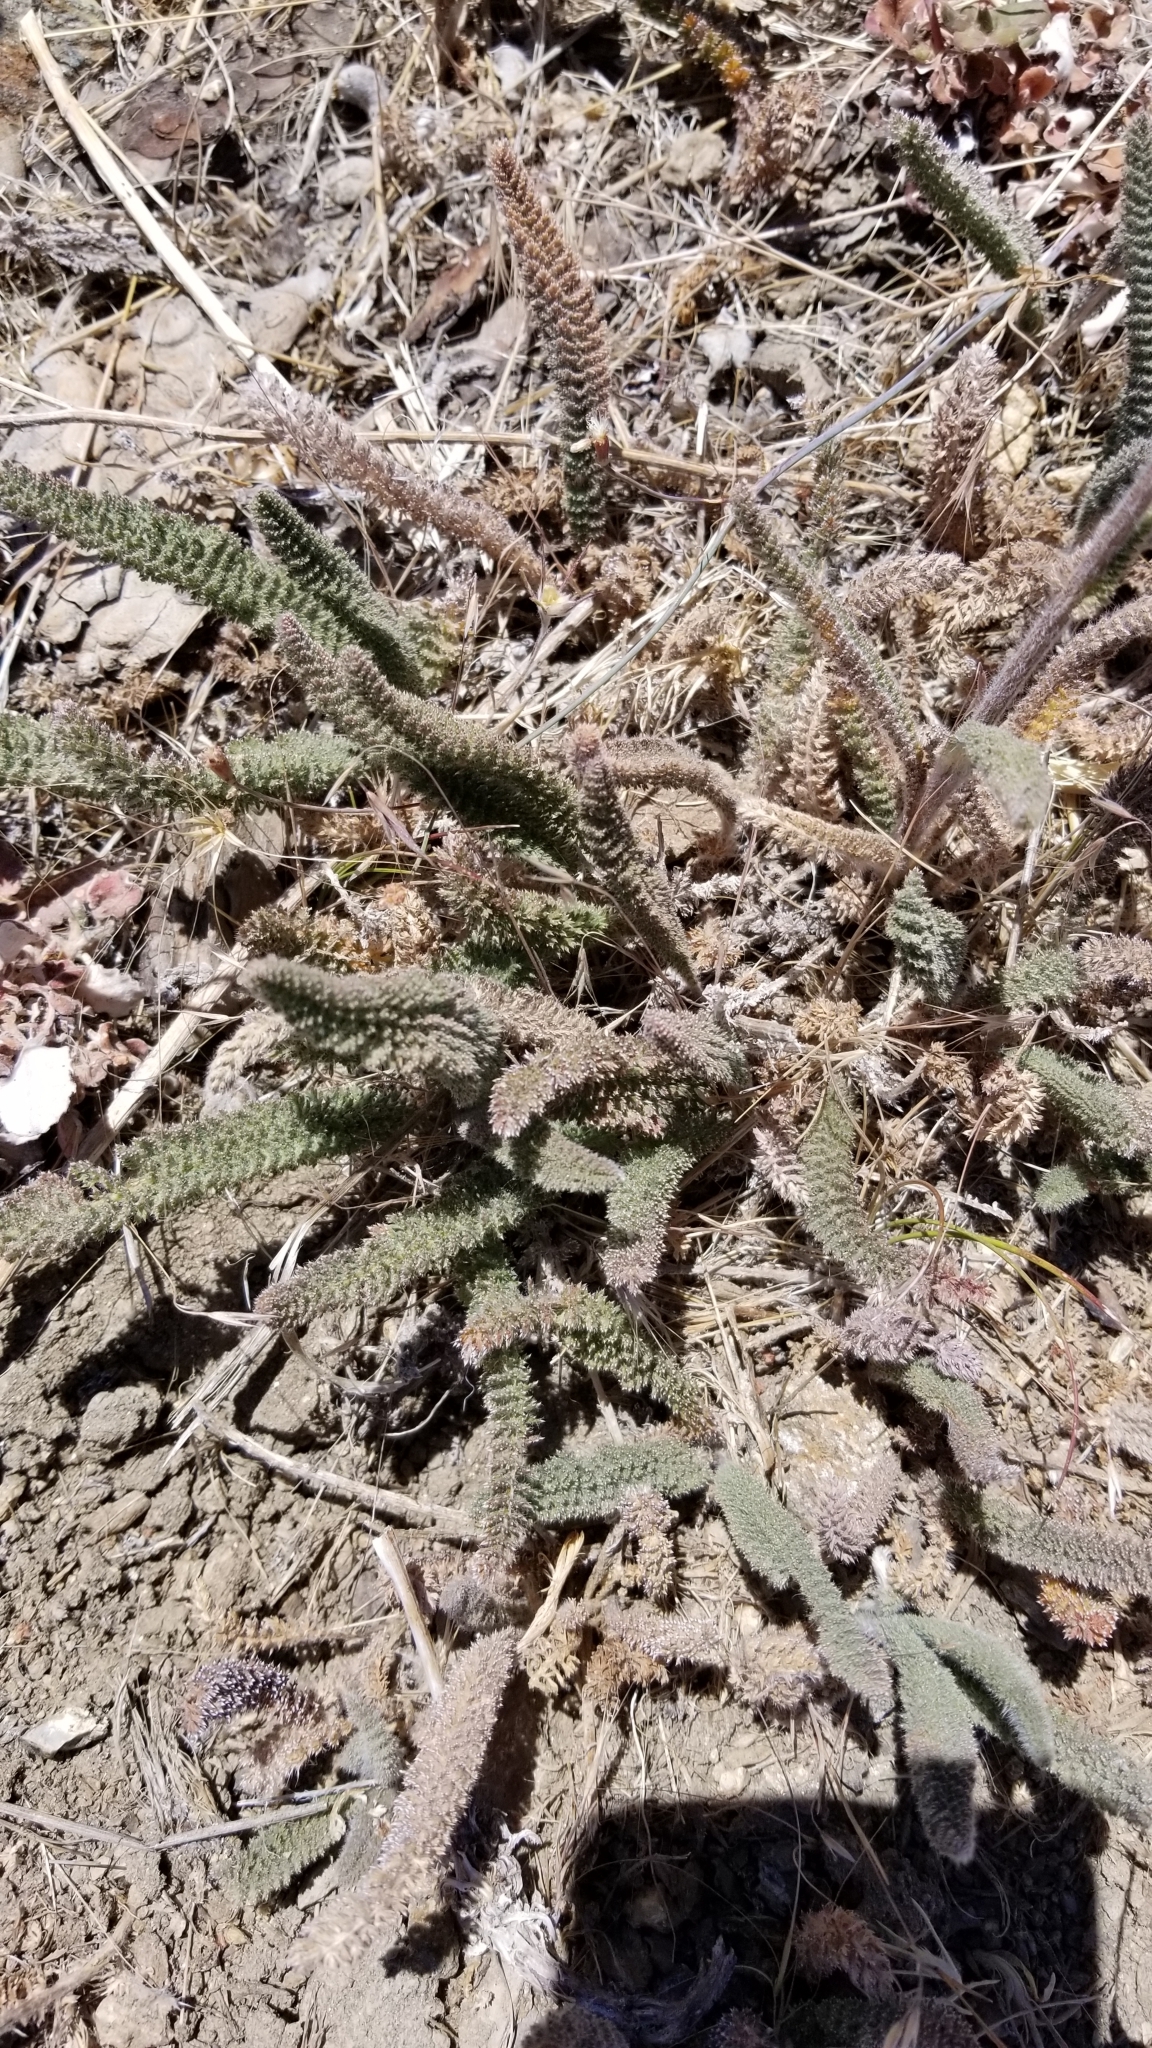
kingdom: Plantae
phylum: Tracheophyta
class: Magnoliopsida
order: Asterales
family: Asteraceae
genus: Achillea
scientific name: Achillea millefolium
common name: Yarrow
